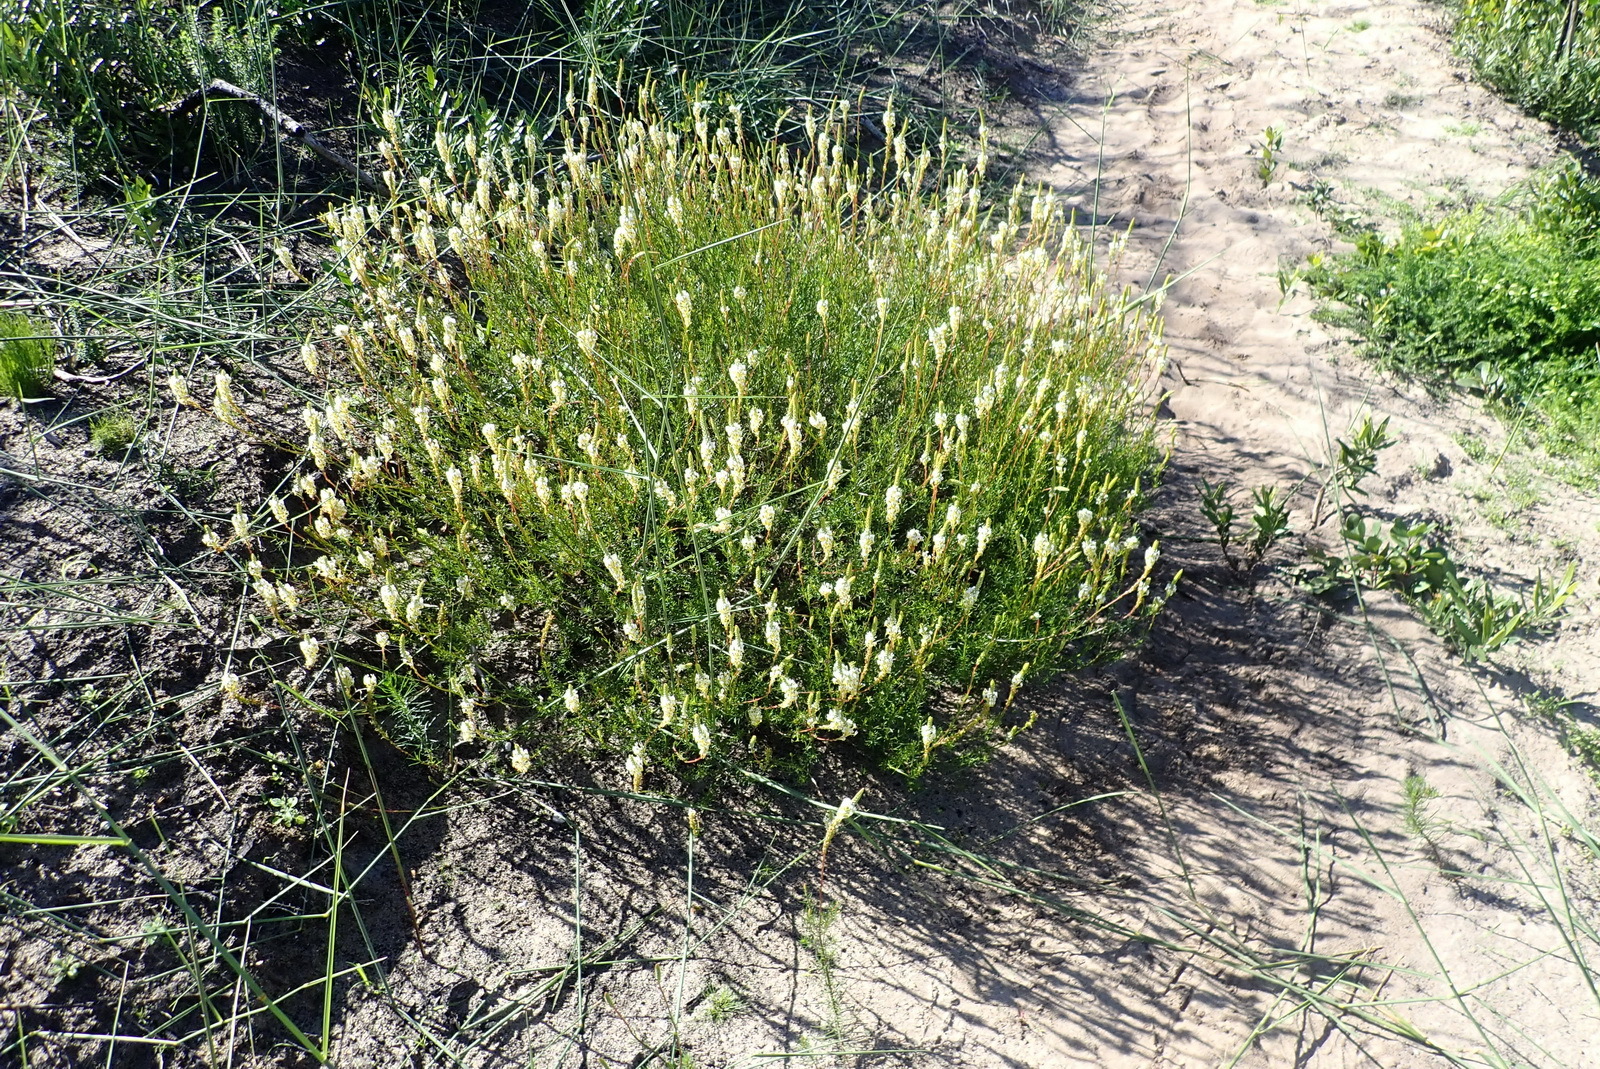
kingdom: Plantae
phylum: Tracheophyta
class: Magnoliopsida
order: Lamiales
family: Scrophulariaceae
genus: Hebenstretia
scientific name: Hebenstretia integrifolia
